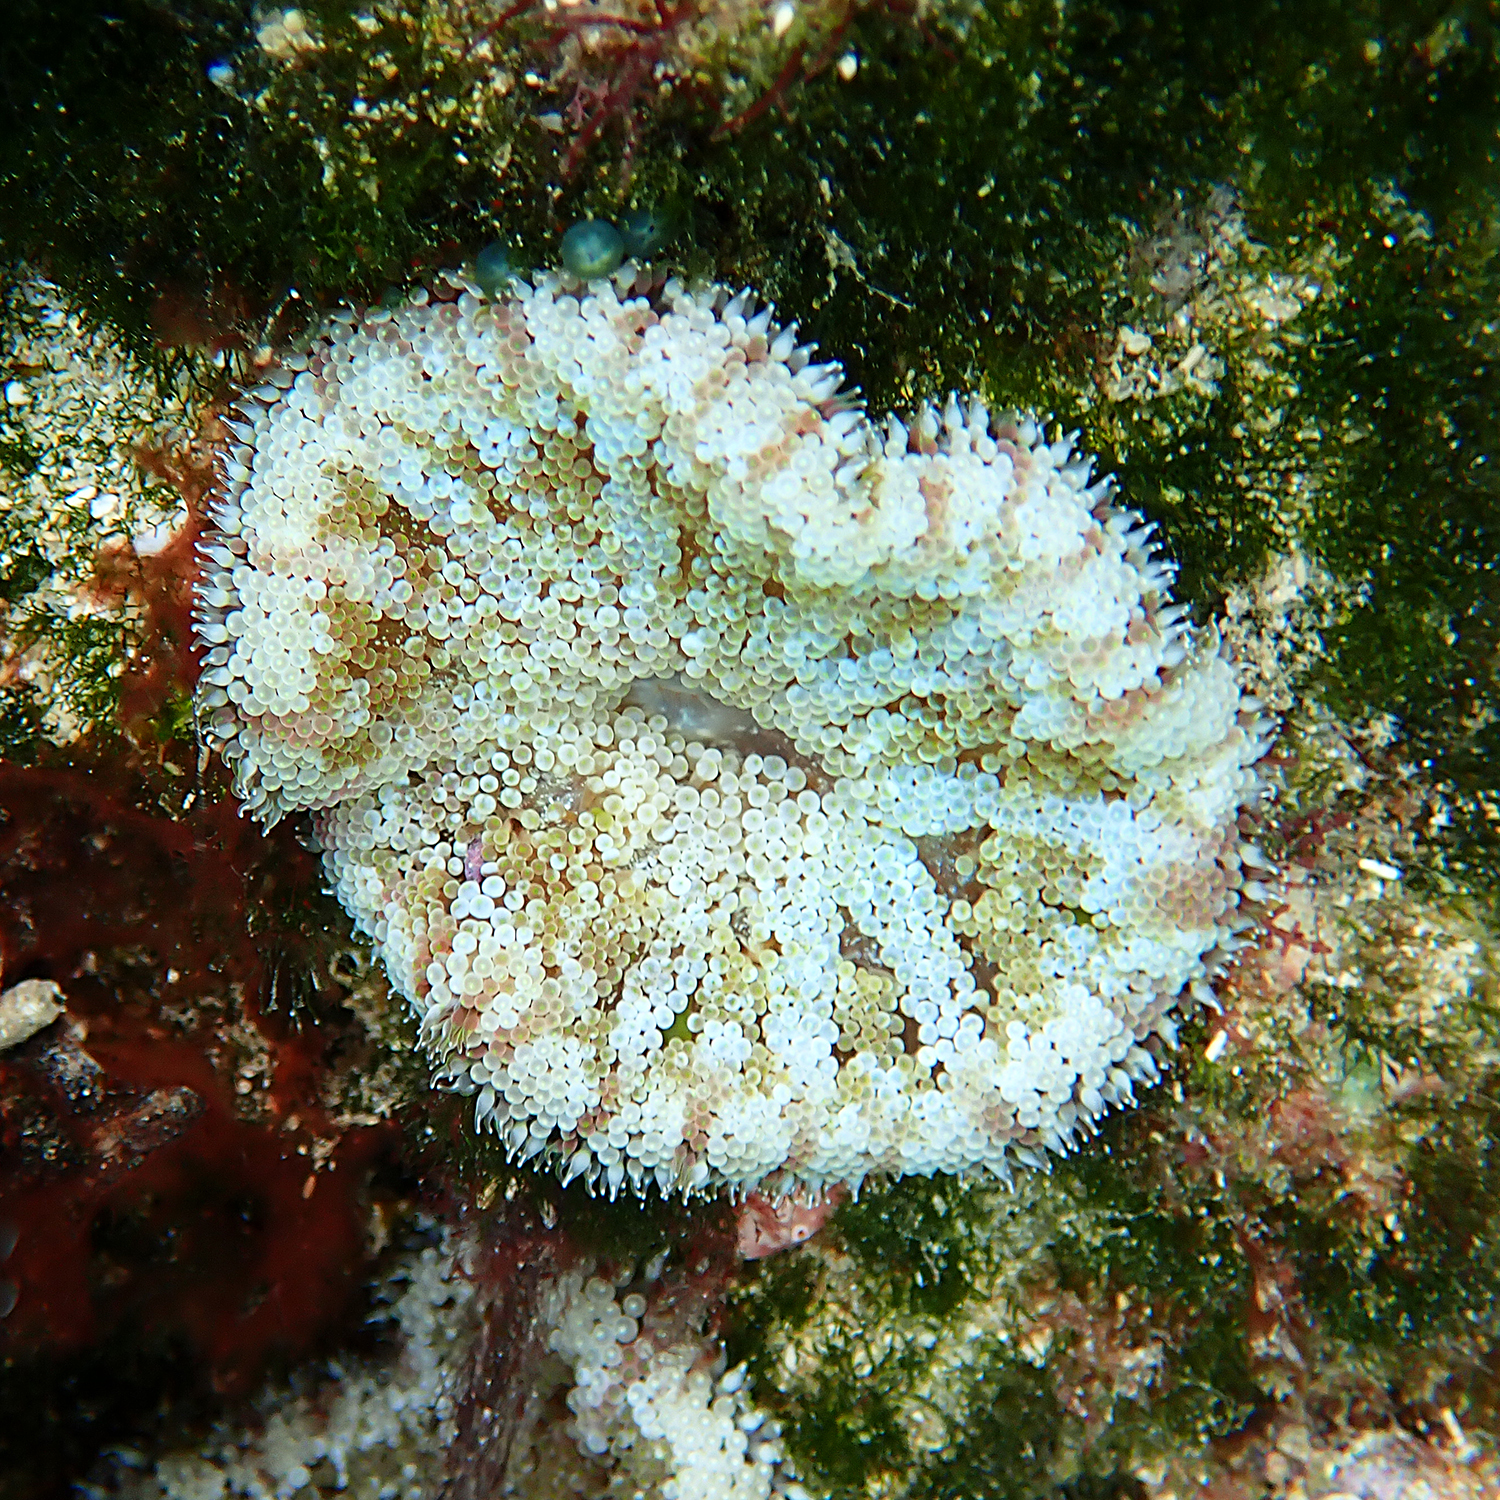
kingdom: Animalia
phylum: Cnidaria
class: Anthozoa
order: Actiniaria
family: Stichodactylidae
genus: Stichodactyla
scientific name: Stichodactyla tapetum
